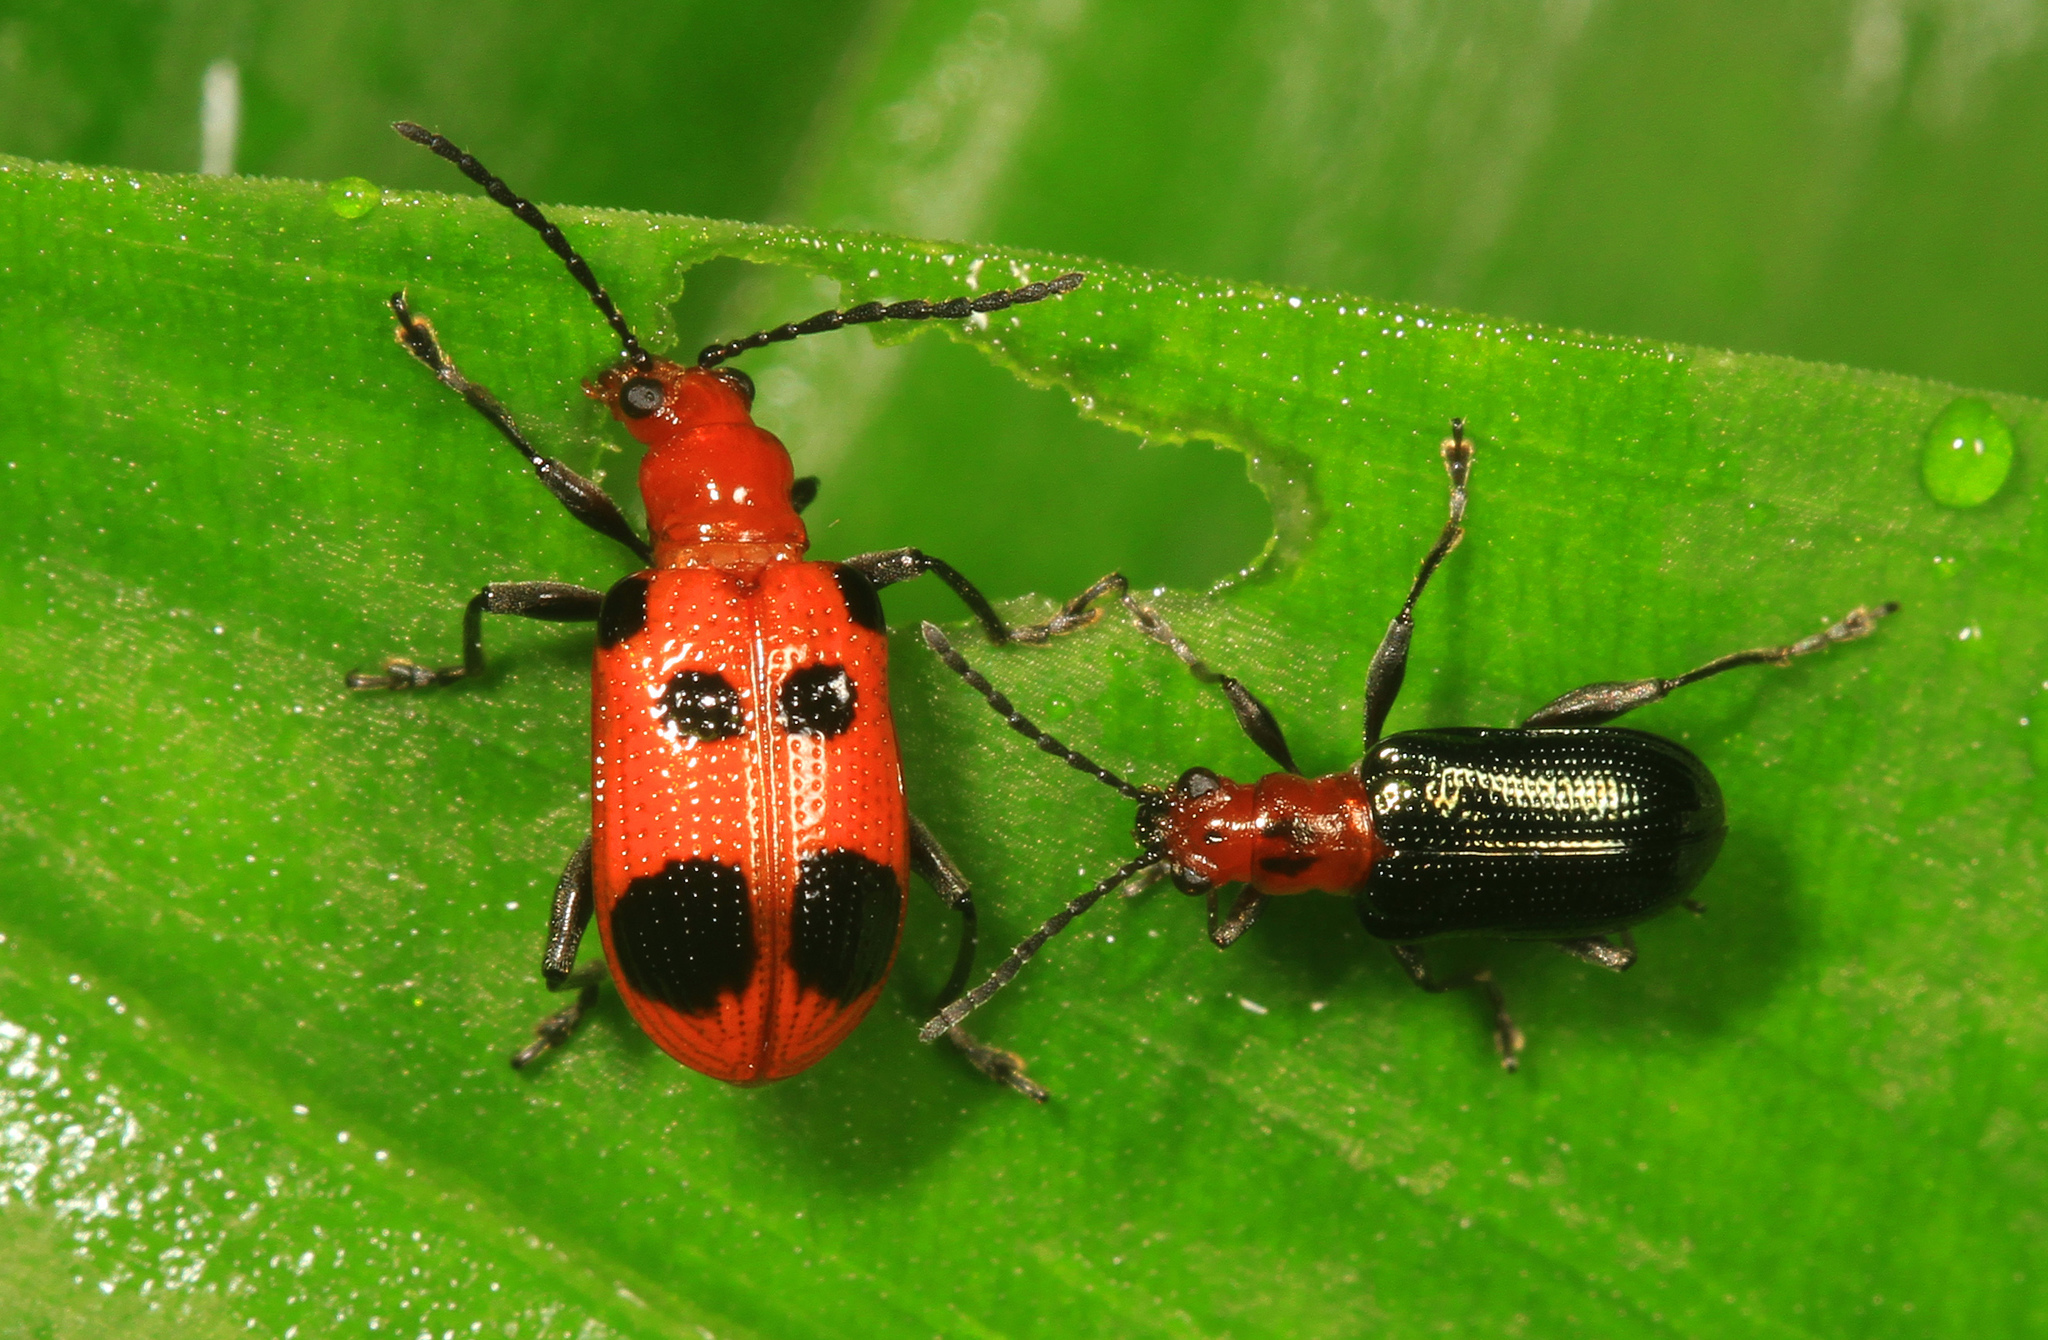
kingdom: Animalia
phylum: Arthropoda
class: Insecta
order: Coleoptera
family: Chrysomelidae
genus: Neolema
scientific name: Neolema sexpunctata
